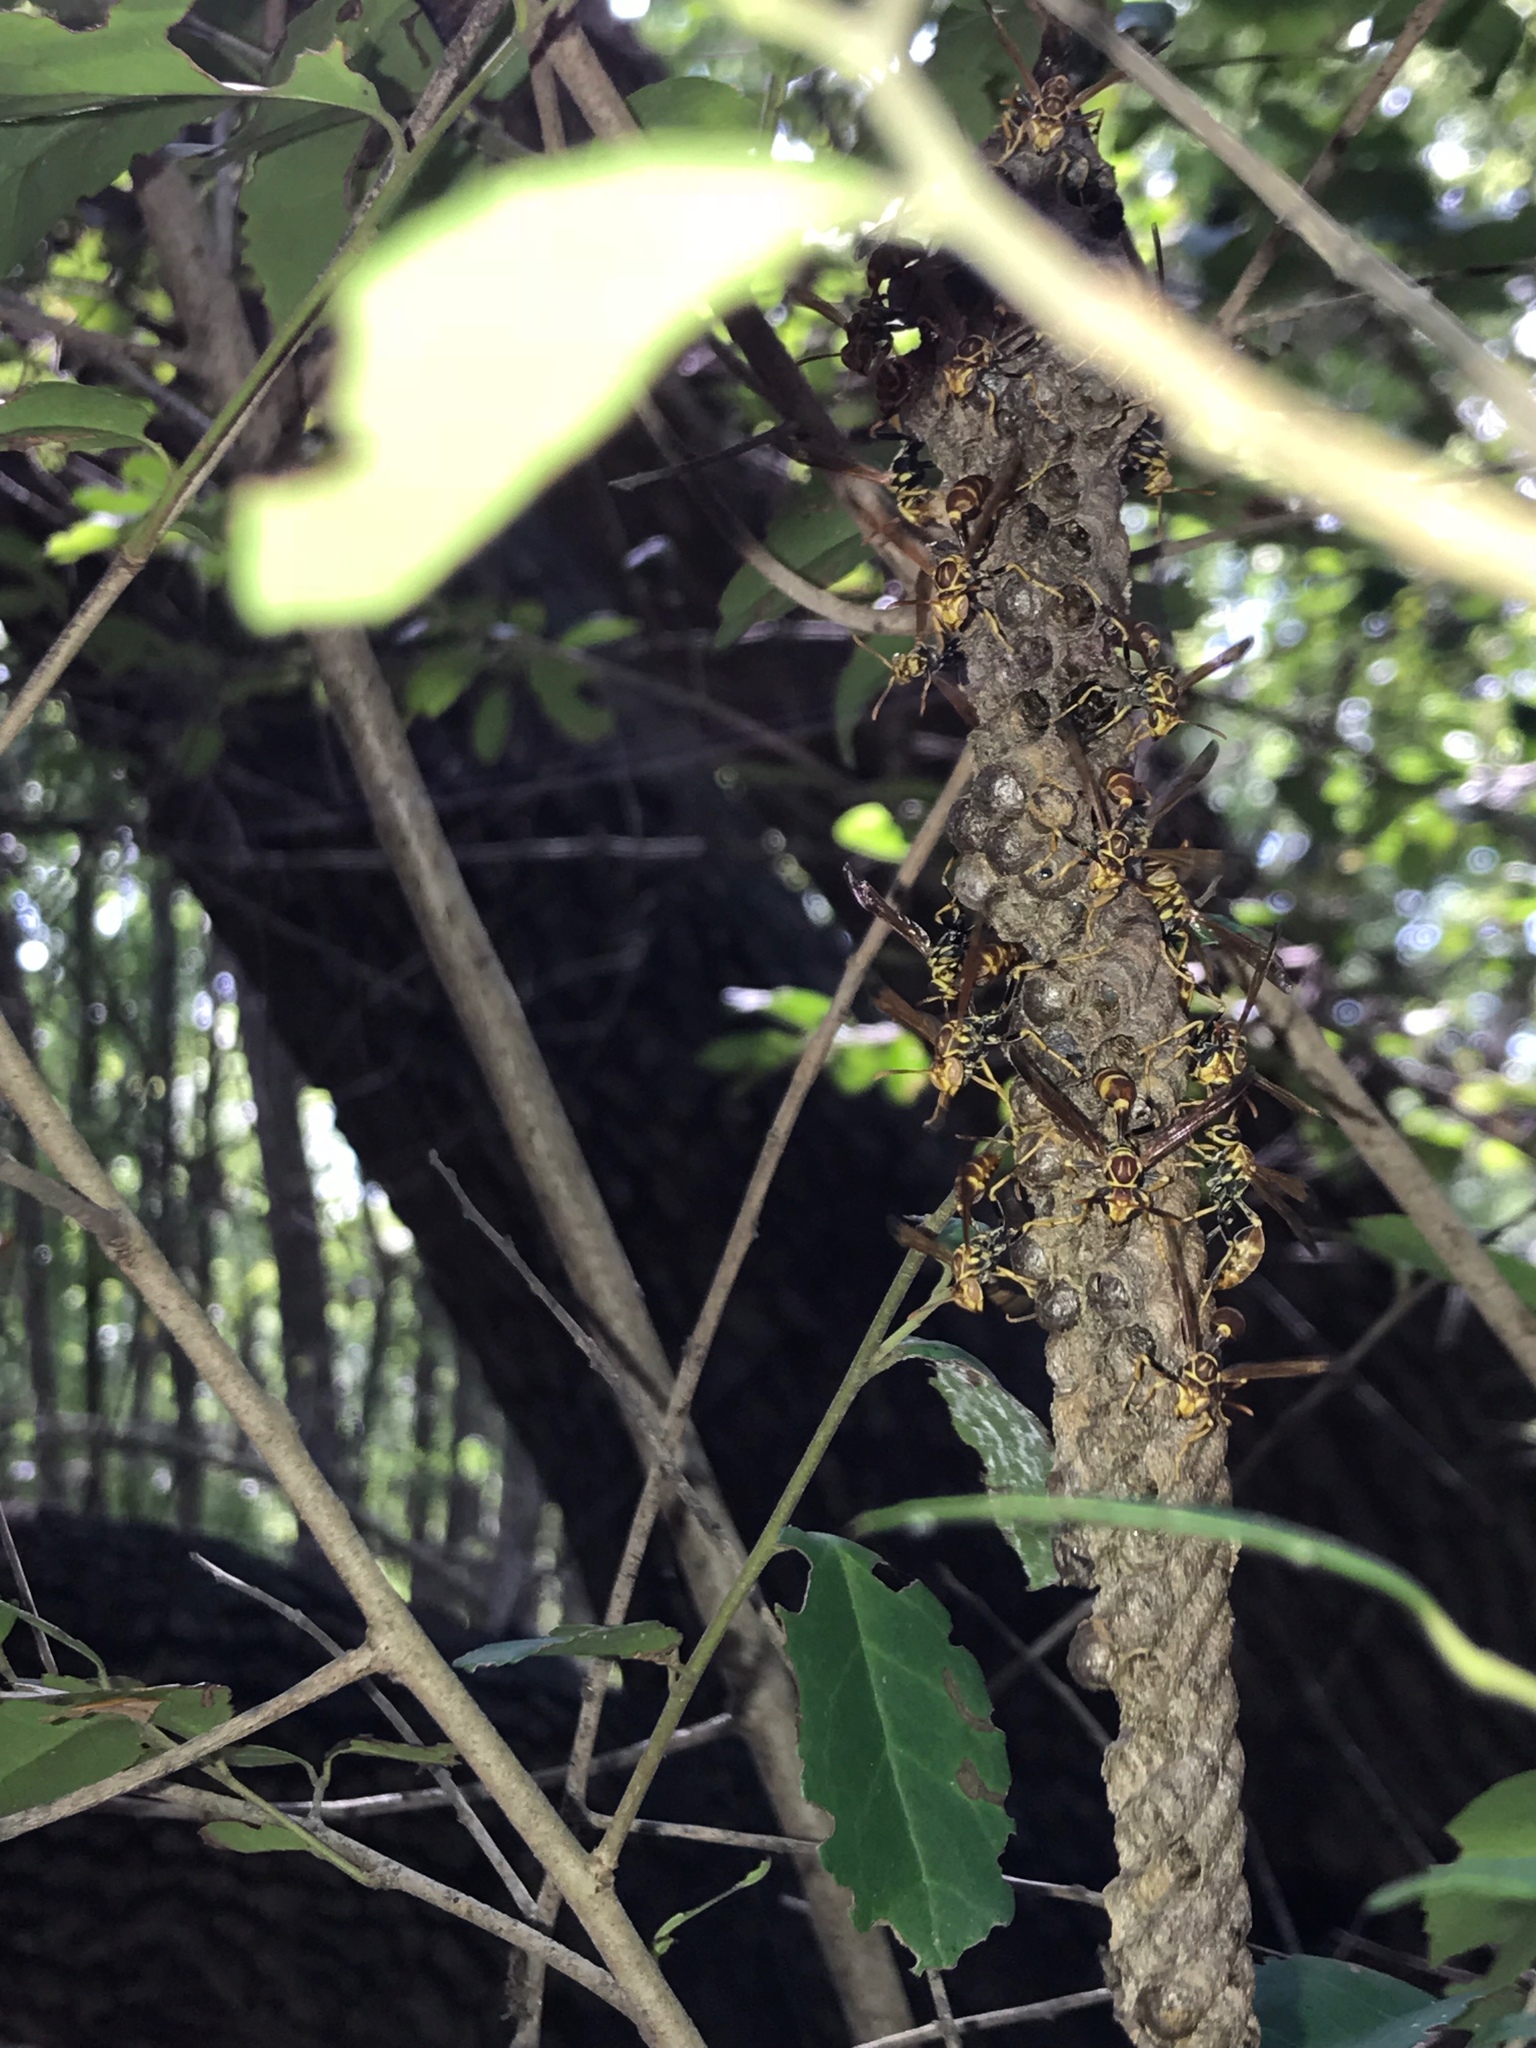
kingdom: Animalia
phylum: Arthropoda
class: Insecta
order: Hymenoptera
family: Vespidae
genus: Mischocyttarus
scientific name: Mischocyttarus mexicanus
